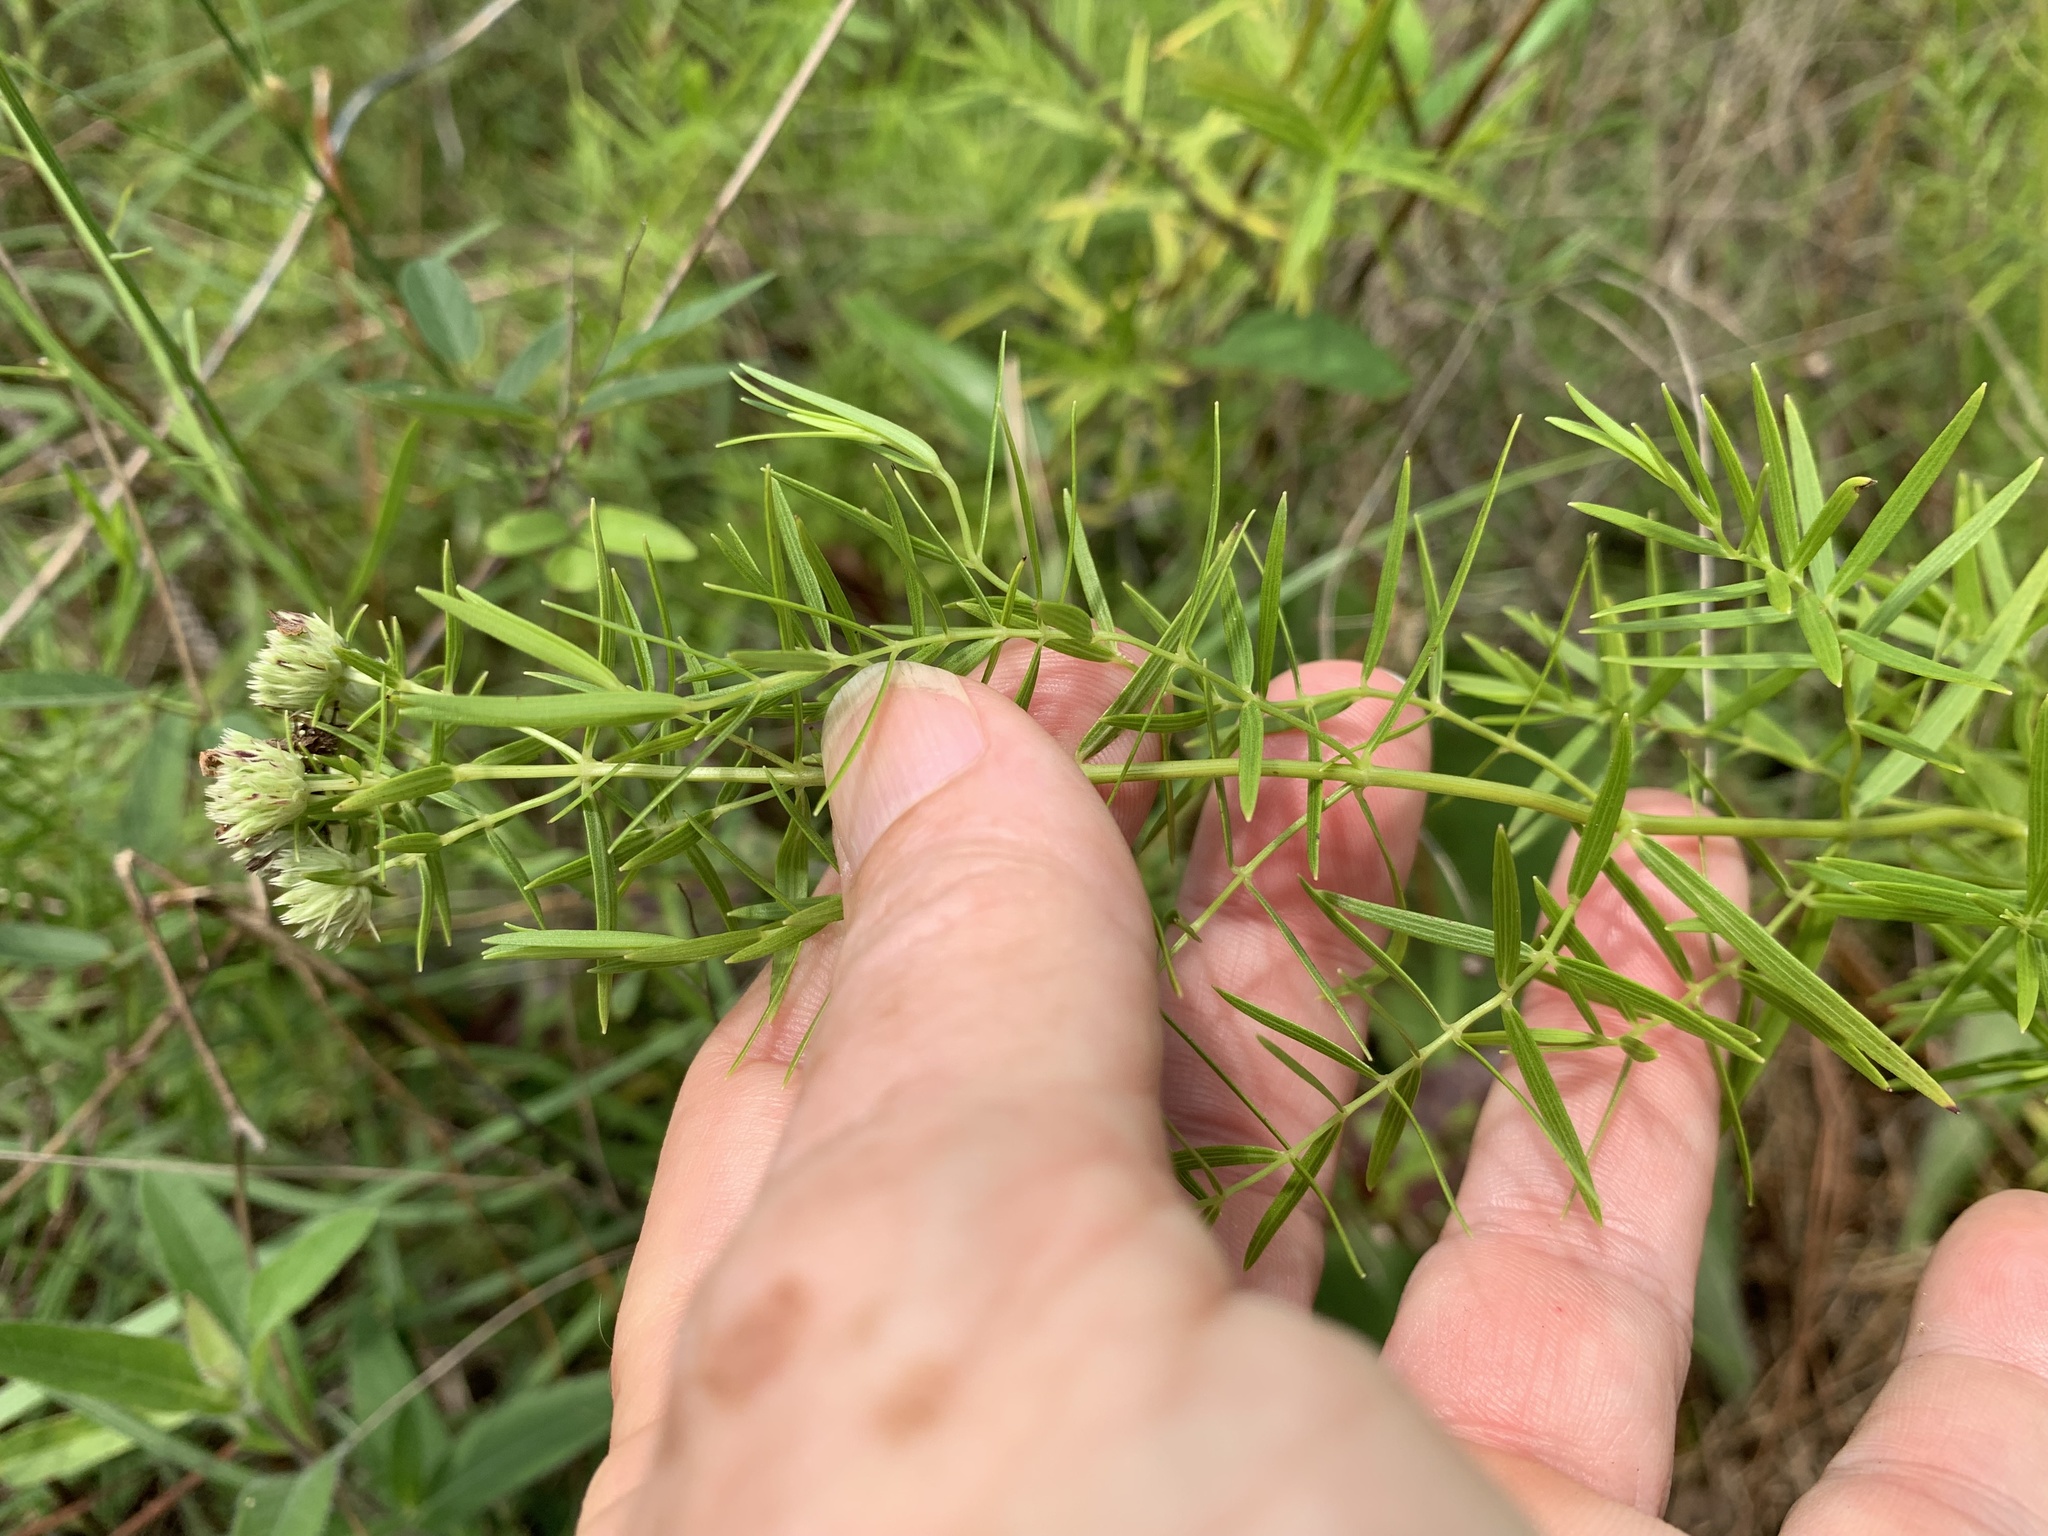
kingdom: Plantae
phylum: Tracheophyta
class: Magnoliopsida
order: Lamiales
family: Lamiaceae
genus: Pycnanthemum
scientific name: Pycnanthemum tenuifolium
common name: Narrow-leaf mountain-mint
